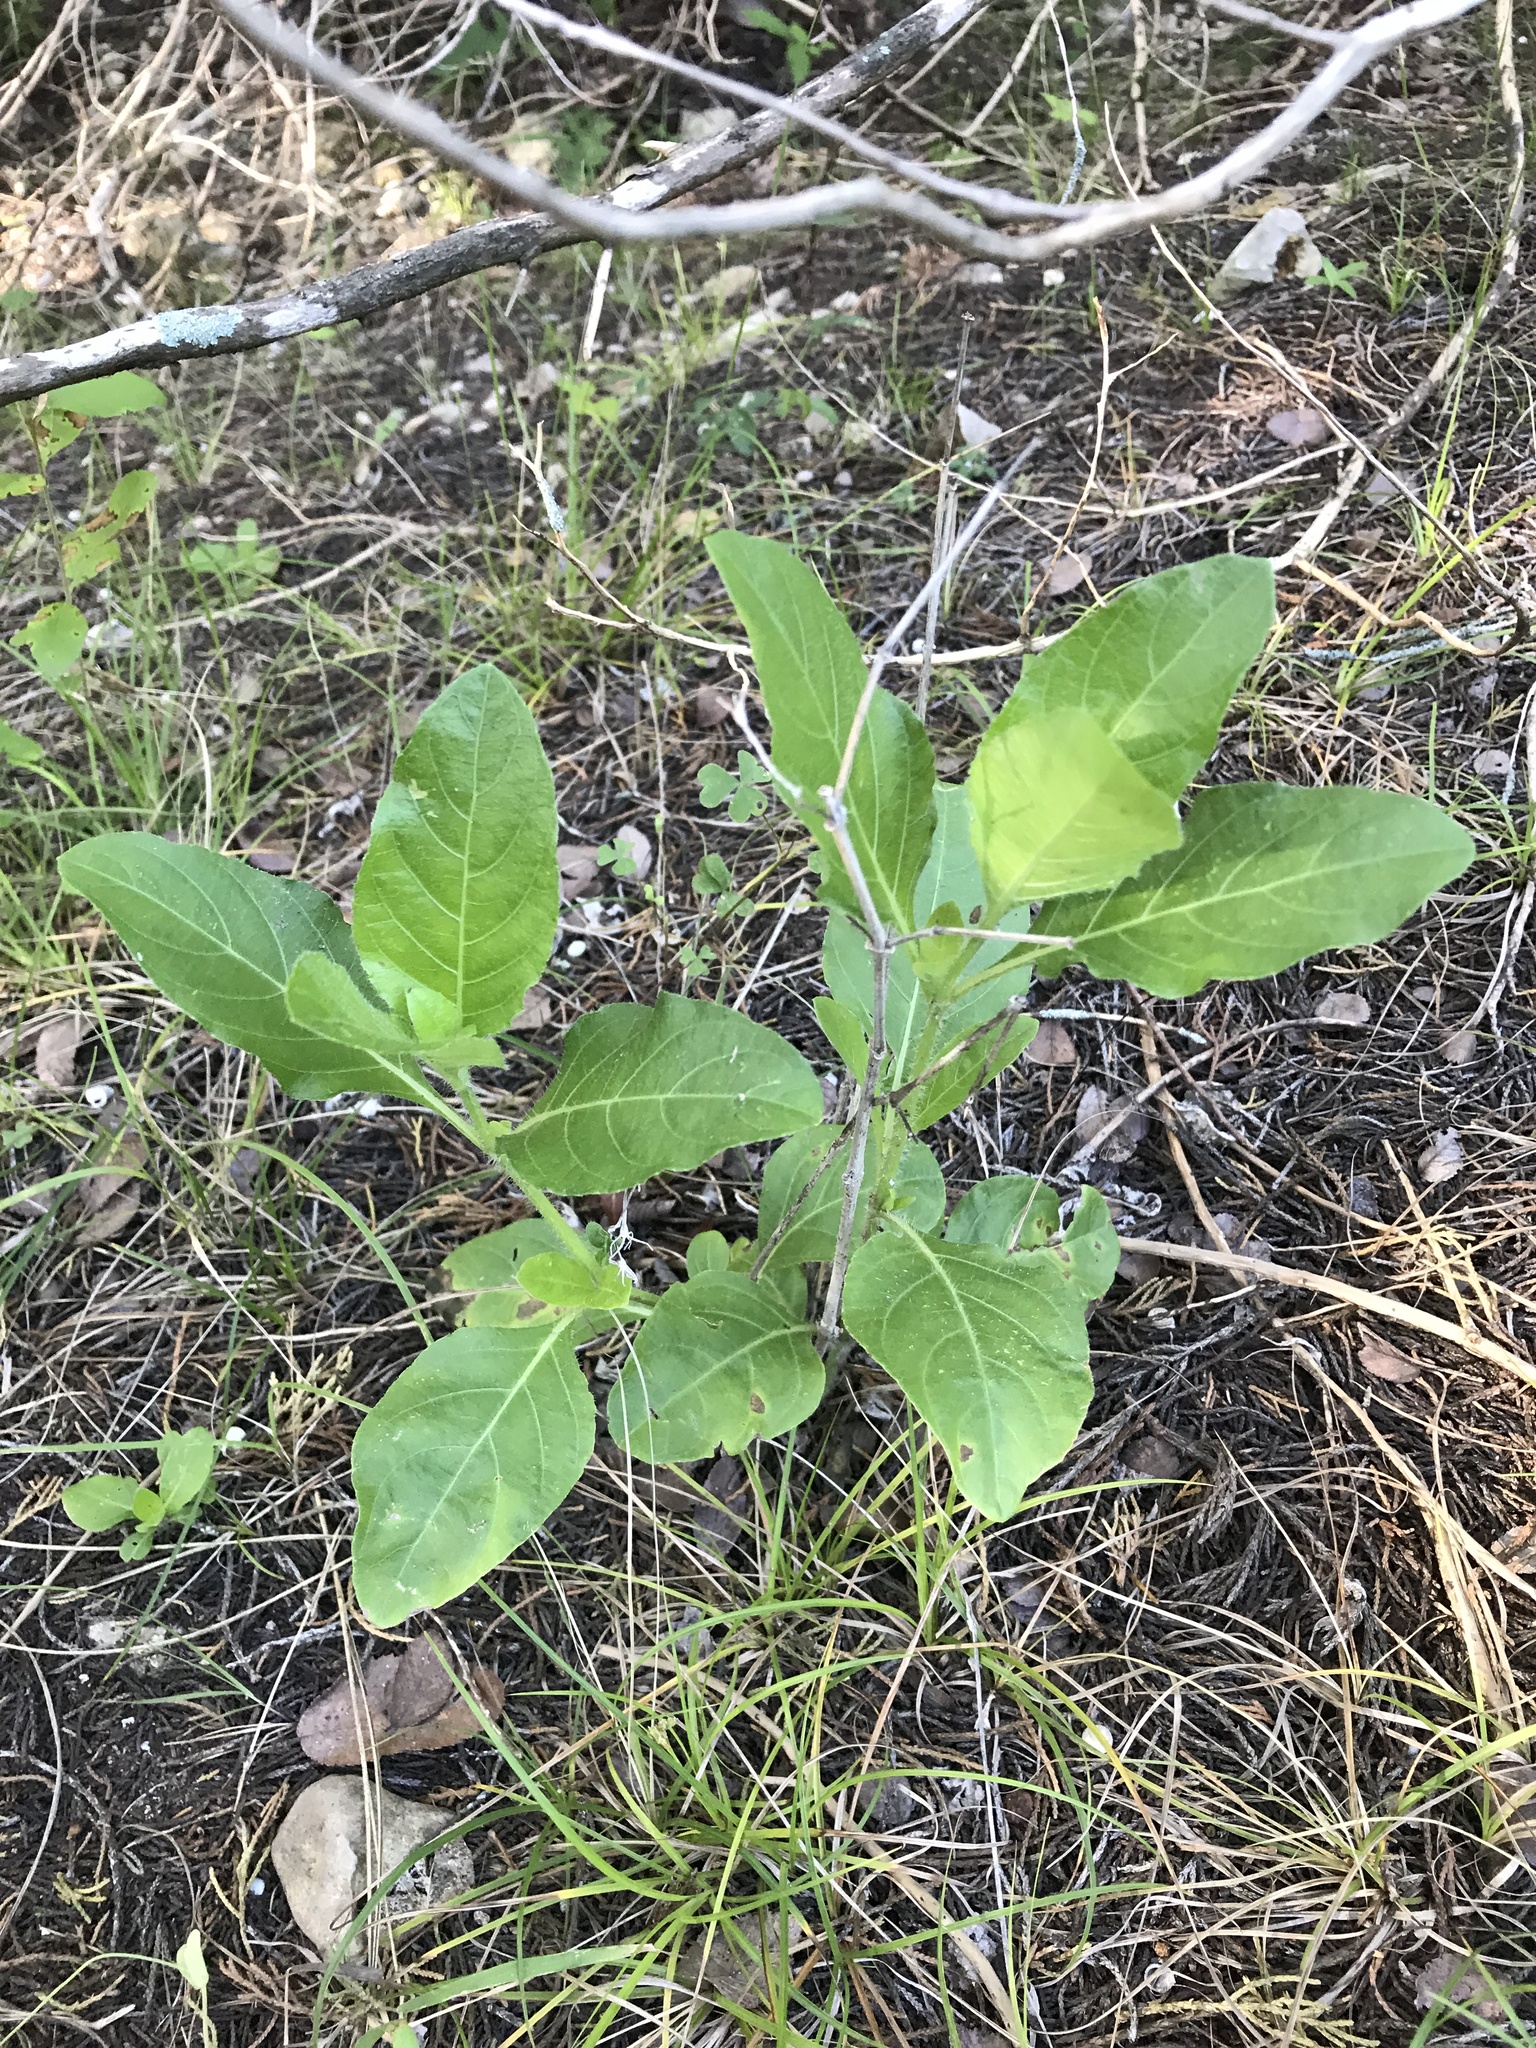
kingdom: Plantae
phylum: Tracheophyta
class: Magnoliopsida
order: Lamiales
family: Acanthaceae
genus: Ruellia
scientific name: Ruellia ciliatiflora
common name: Hairyflower wild petunia
